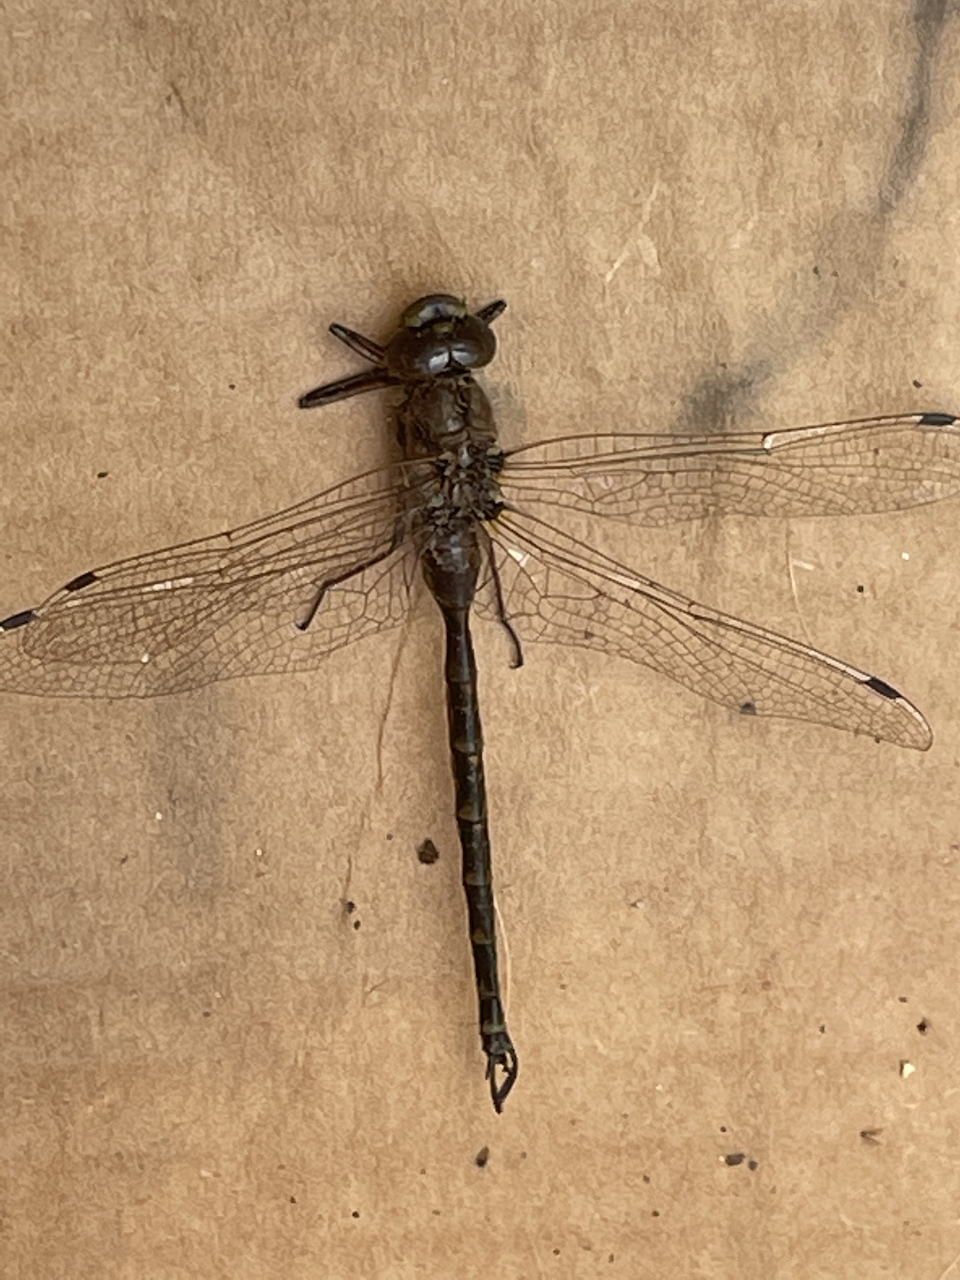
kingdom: Animalia
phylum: Arthropoda
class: Insecta
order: Odonata
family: Aeshnidae
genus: Gomphaeschna
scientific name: Gomphaeschna furcillata
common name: Harlequin darner
